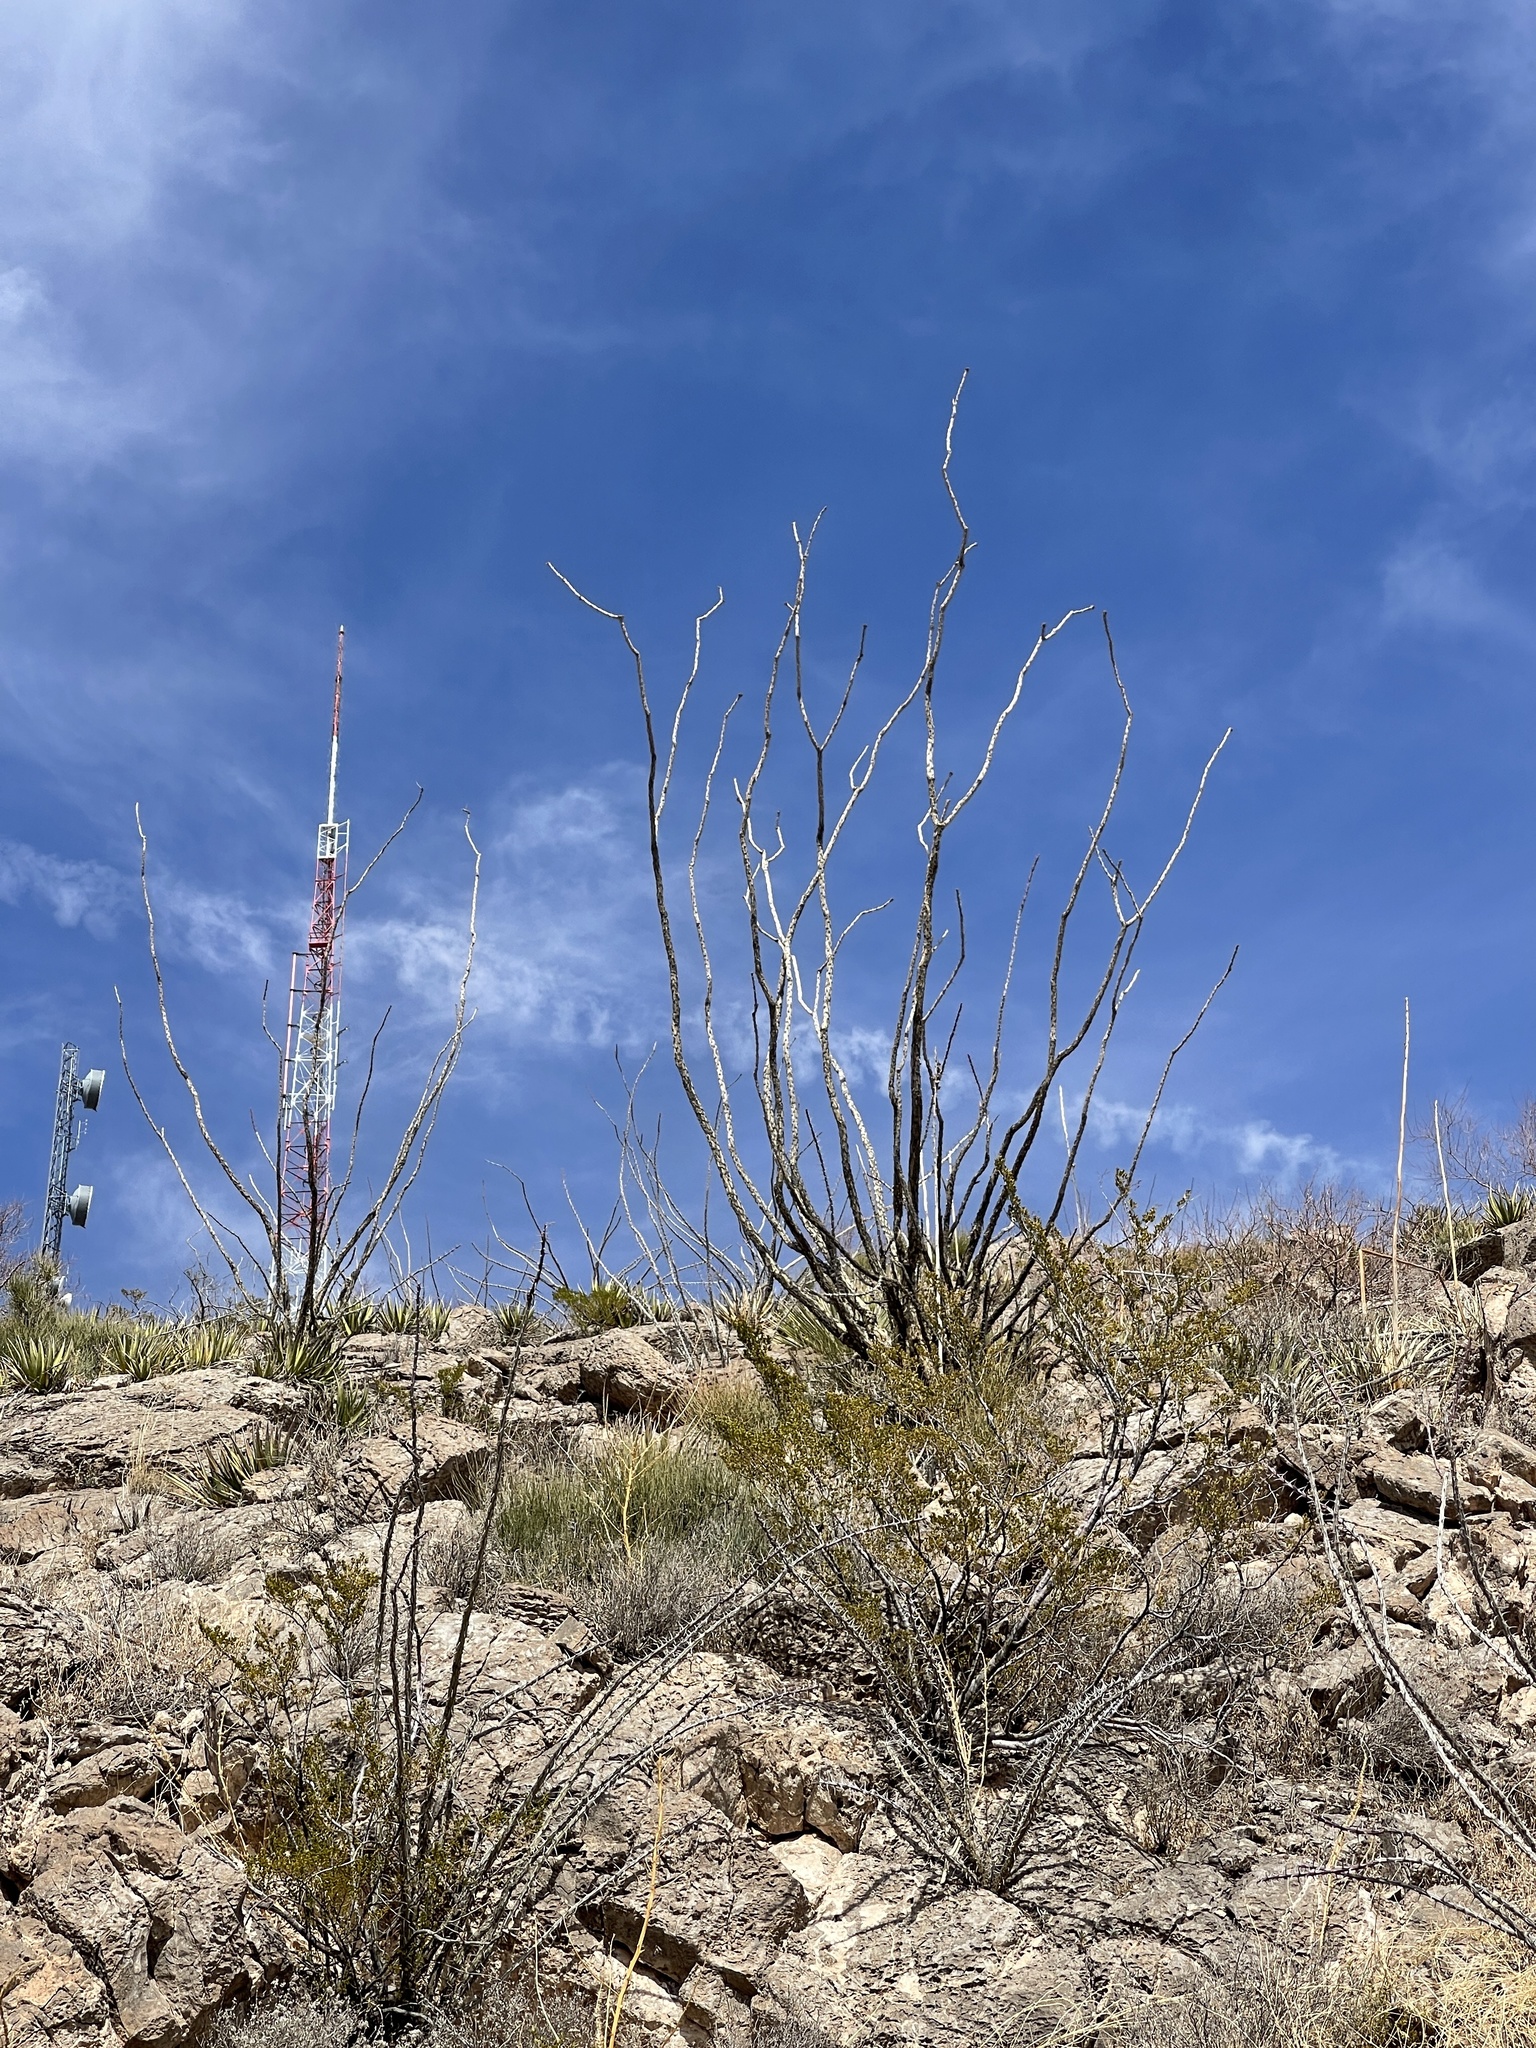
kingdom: Plantae
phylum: Tracheophyta
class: Magnoliopsida
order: Ericales
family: Fouquieriaceae
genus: Fouquieria
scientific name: Fouquieria splendens
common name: Vine-cactus
